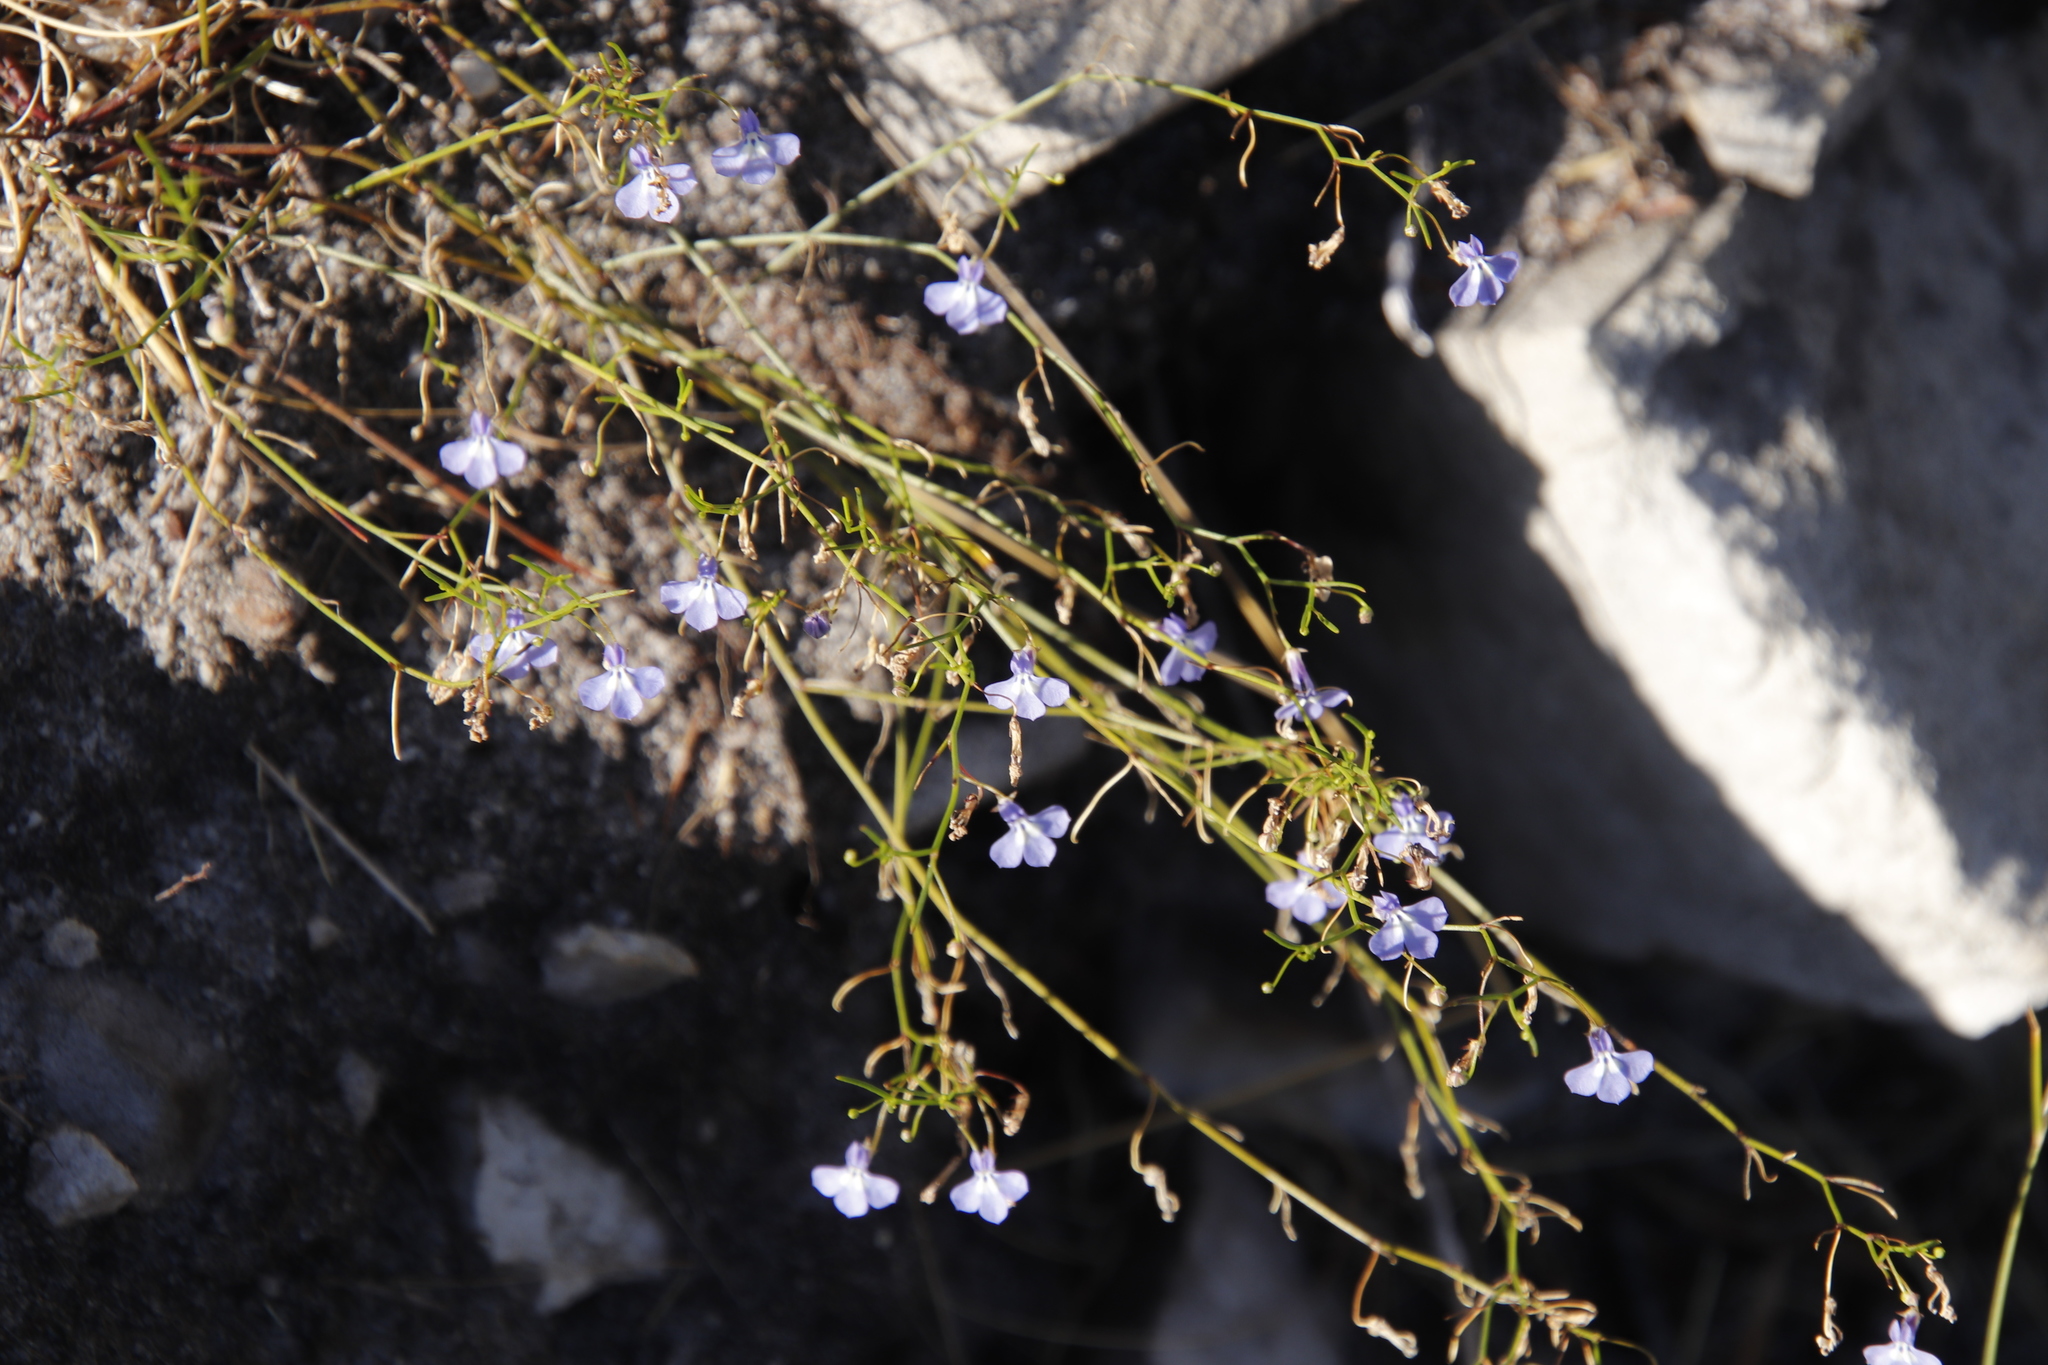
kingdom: Plantae
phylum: Tracheophyta
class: Magnoliopsida
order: Asterales
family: Campanulaceae
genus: Lobelia
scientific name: Lobelia setacea
